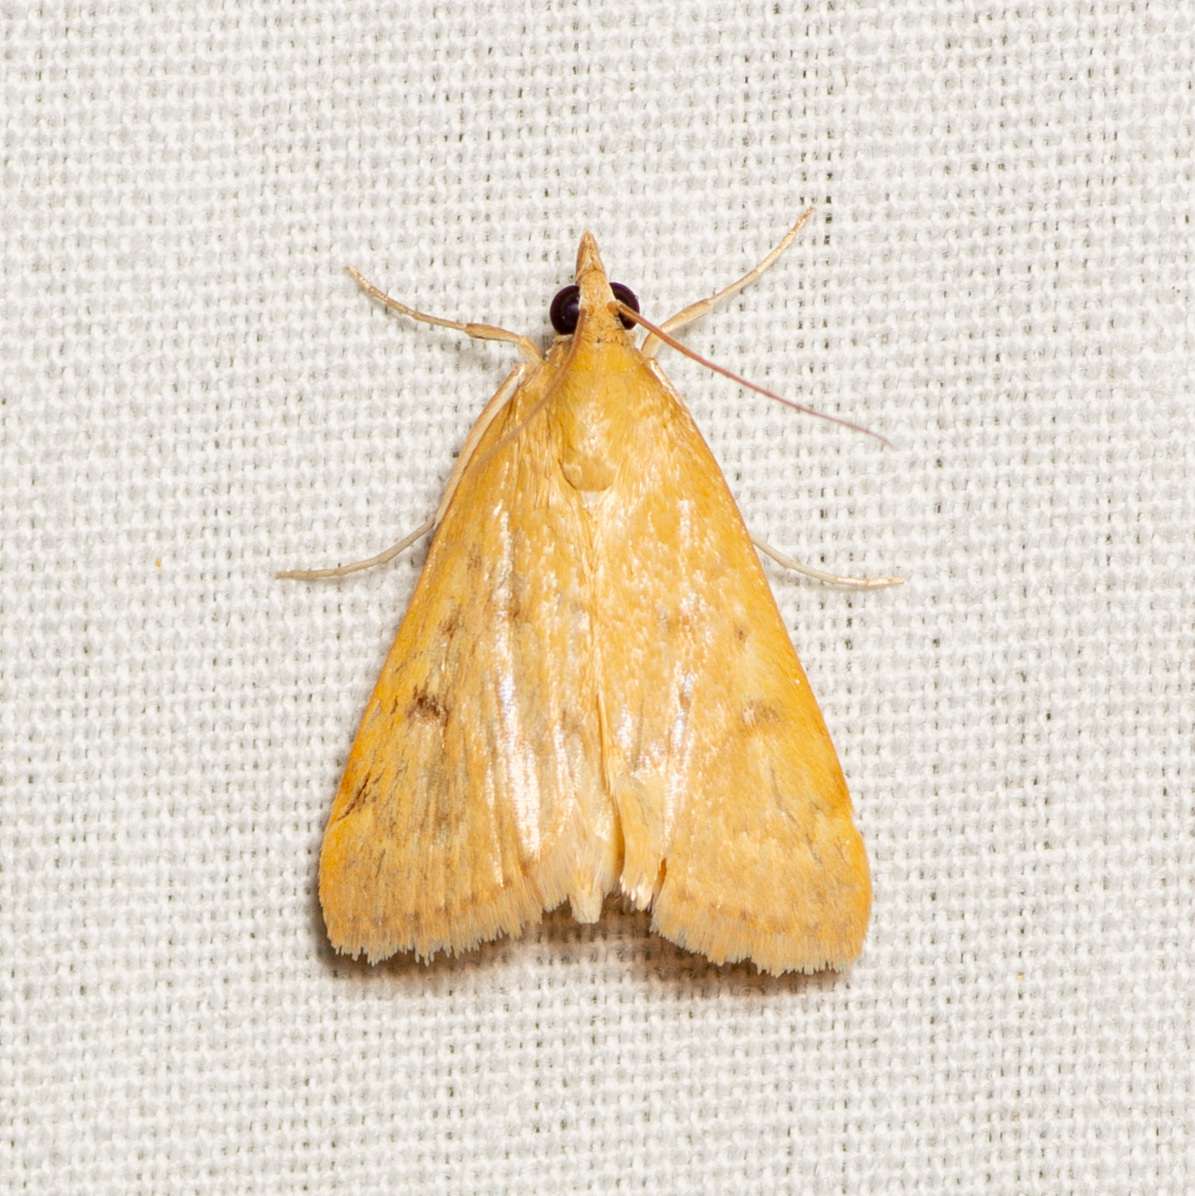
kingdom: Animalia
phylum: Arthropoda
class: Insecta
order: Lepidoptera
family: Crambidae
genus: Achyra
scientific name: Achyra rantalis
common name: Garden webworm
